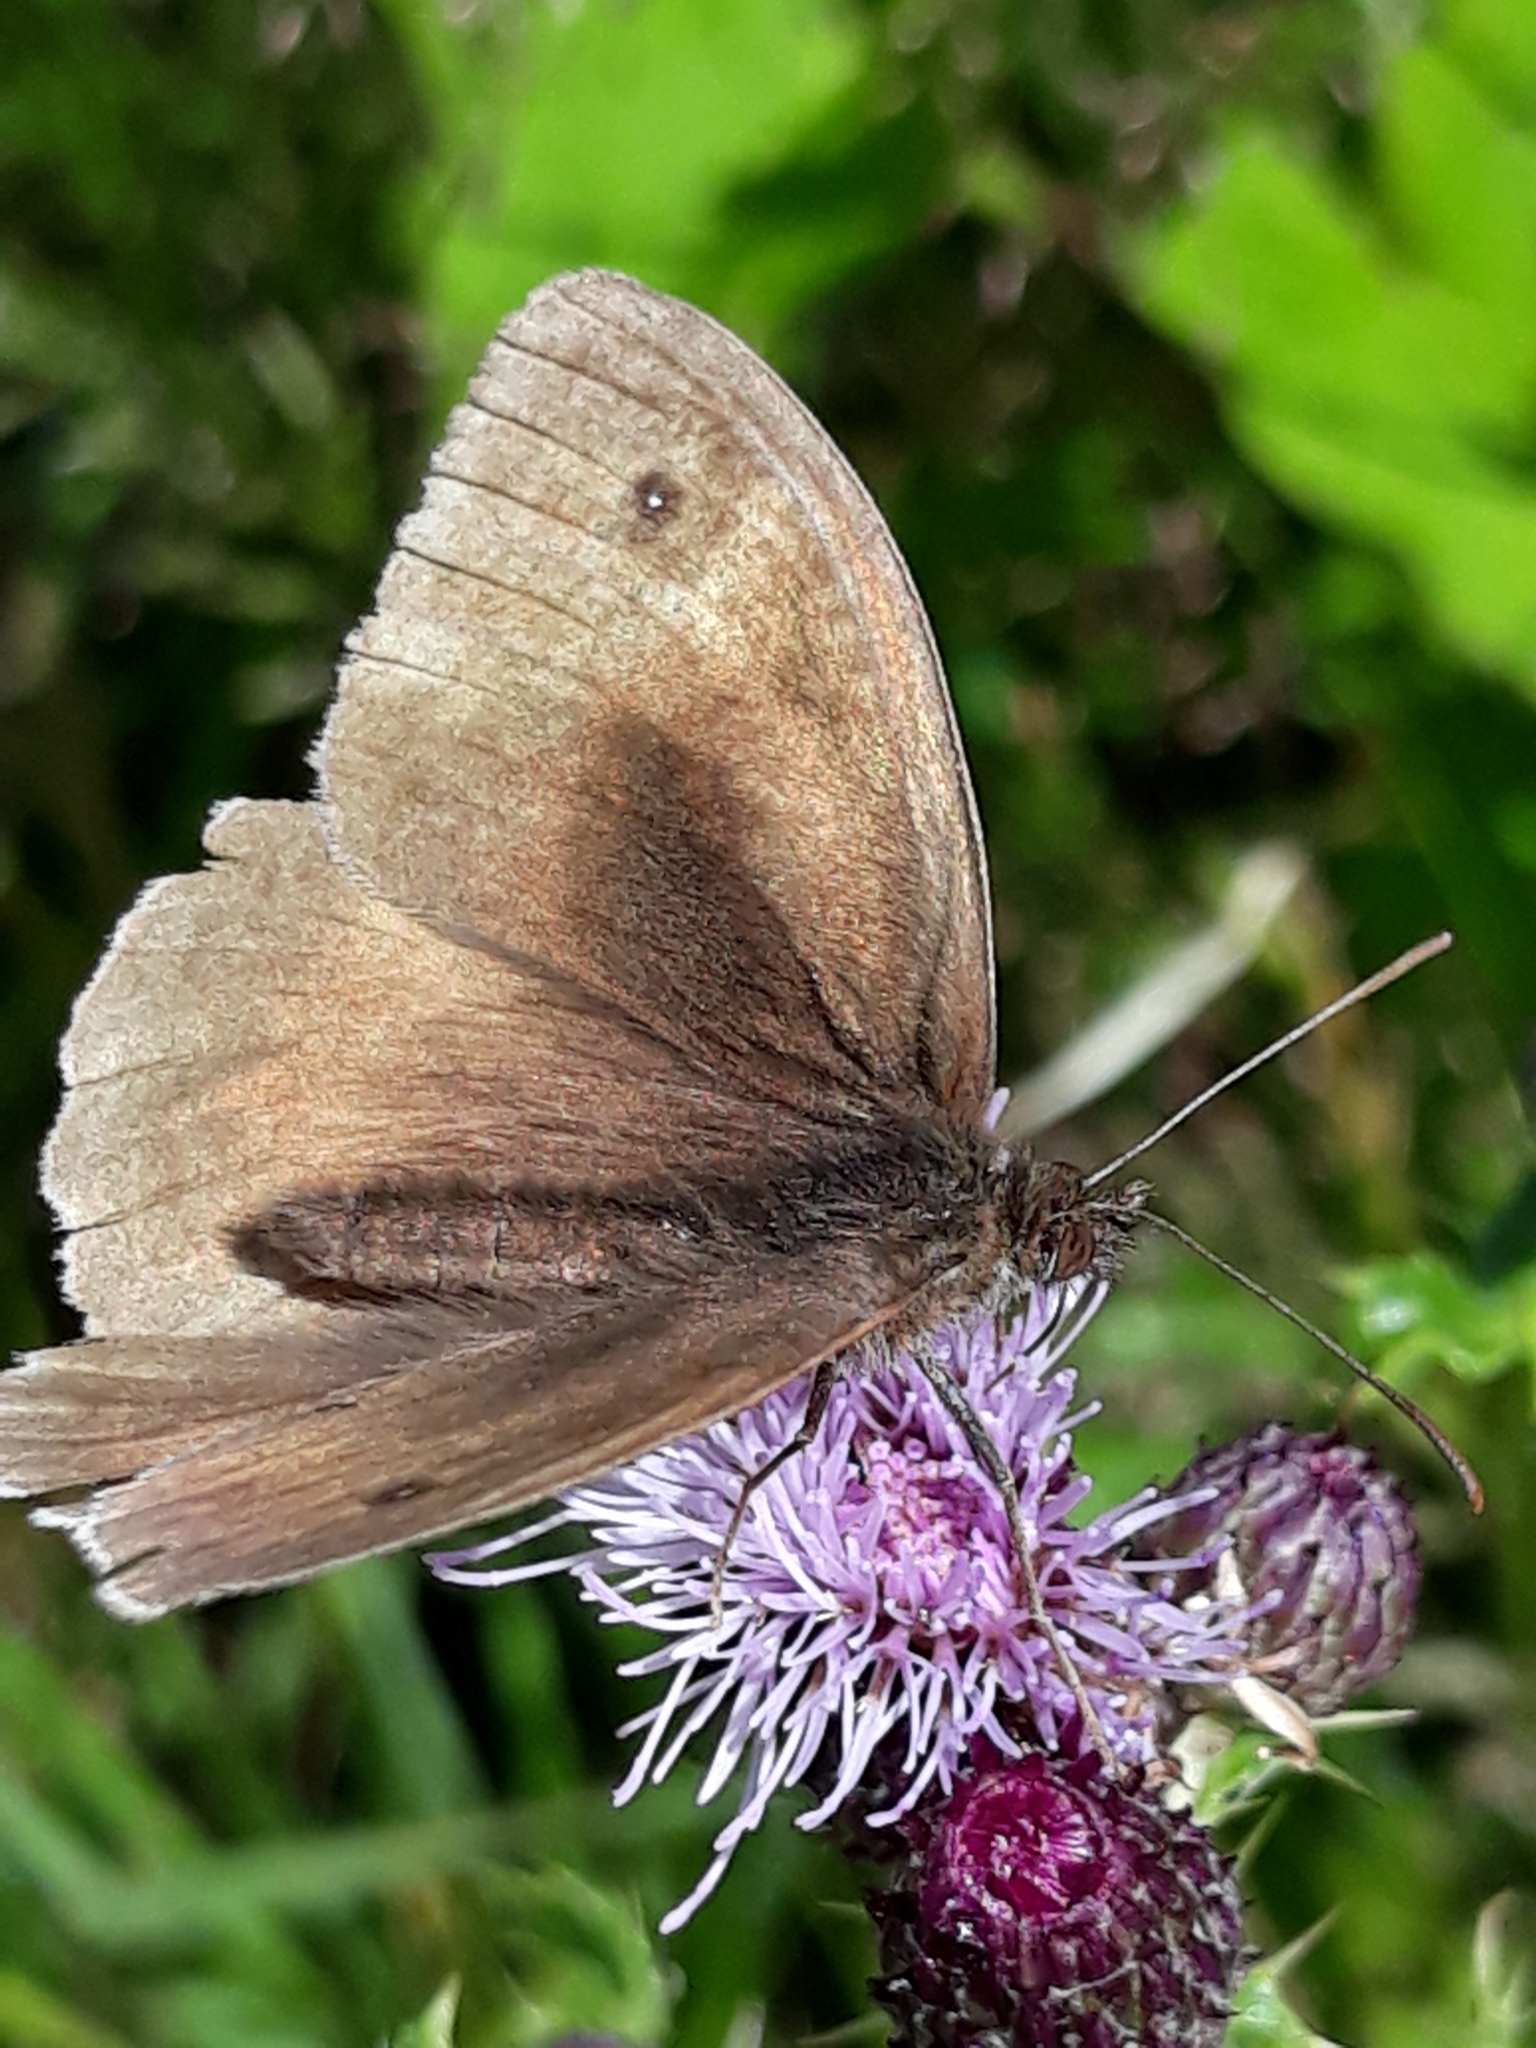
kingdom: Animalia
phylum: Arthropoda
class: Insecta
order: Lepidoptera
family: Nymphalidae
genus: Maniola
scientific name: Maniola jurtina
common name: Meadow brown
